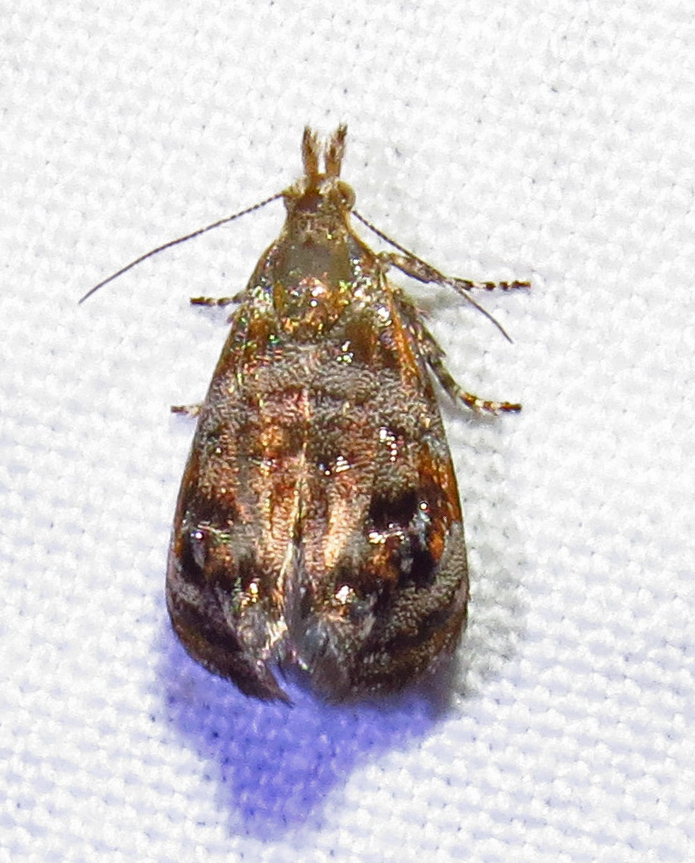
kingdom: Animalia
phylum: Arthropoda
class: Insecta
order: Lepidoptera
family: Choreutidae
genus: Tebenna
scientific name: Tebenna
